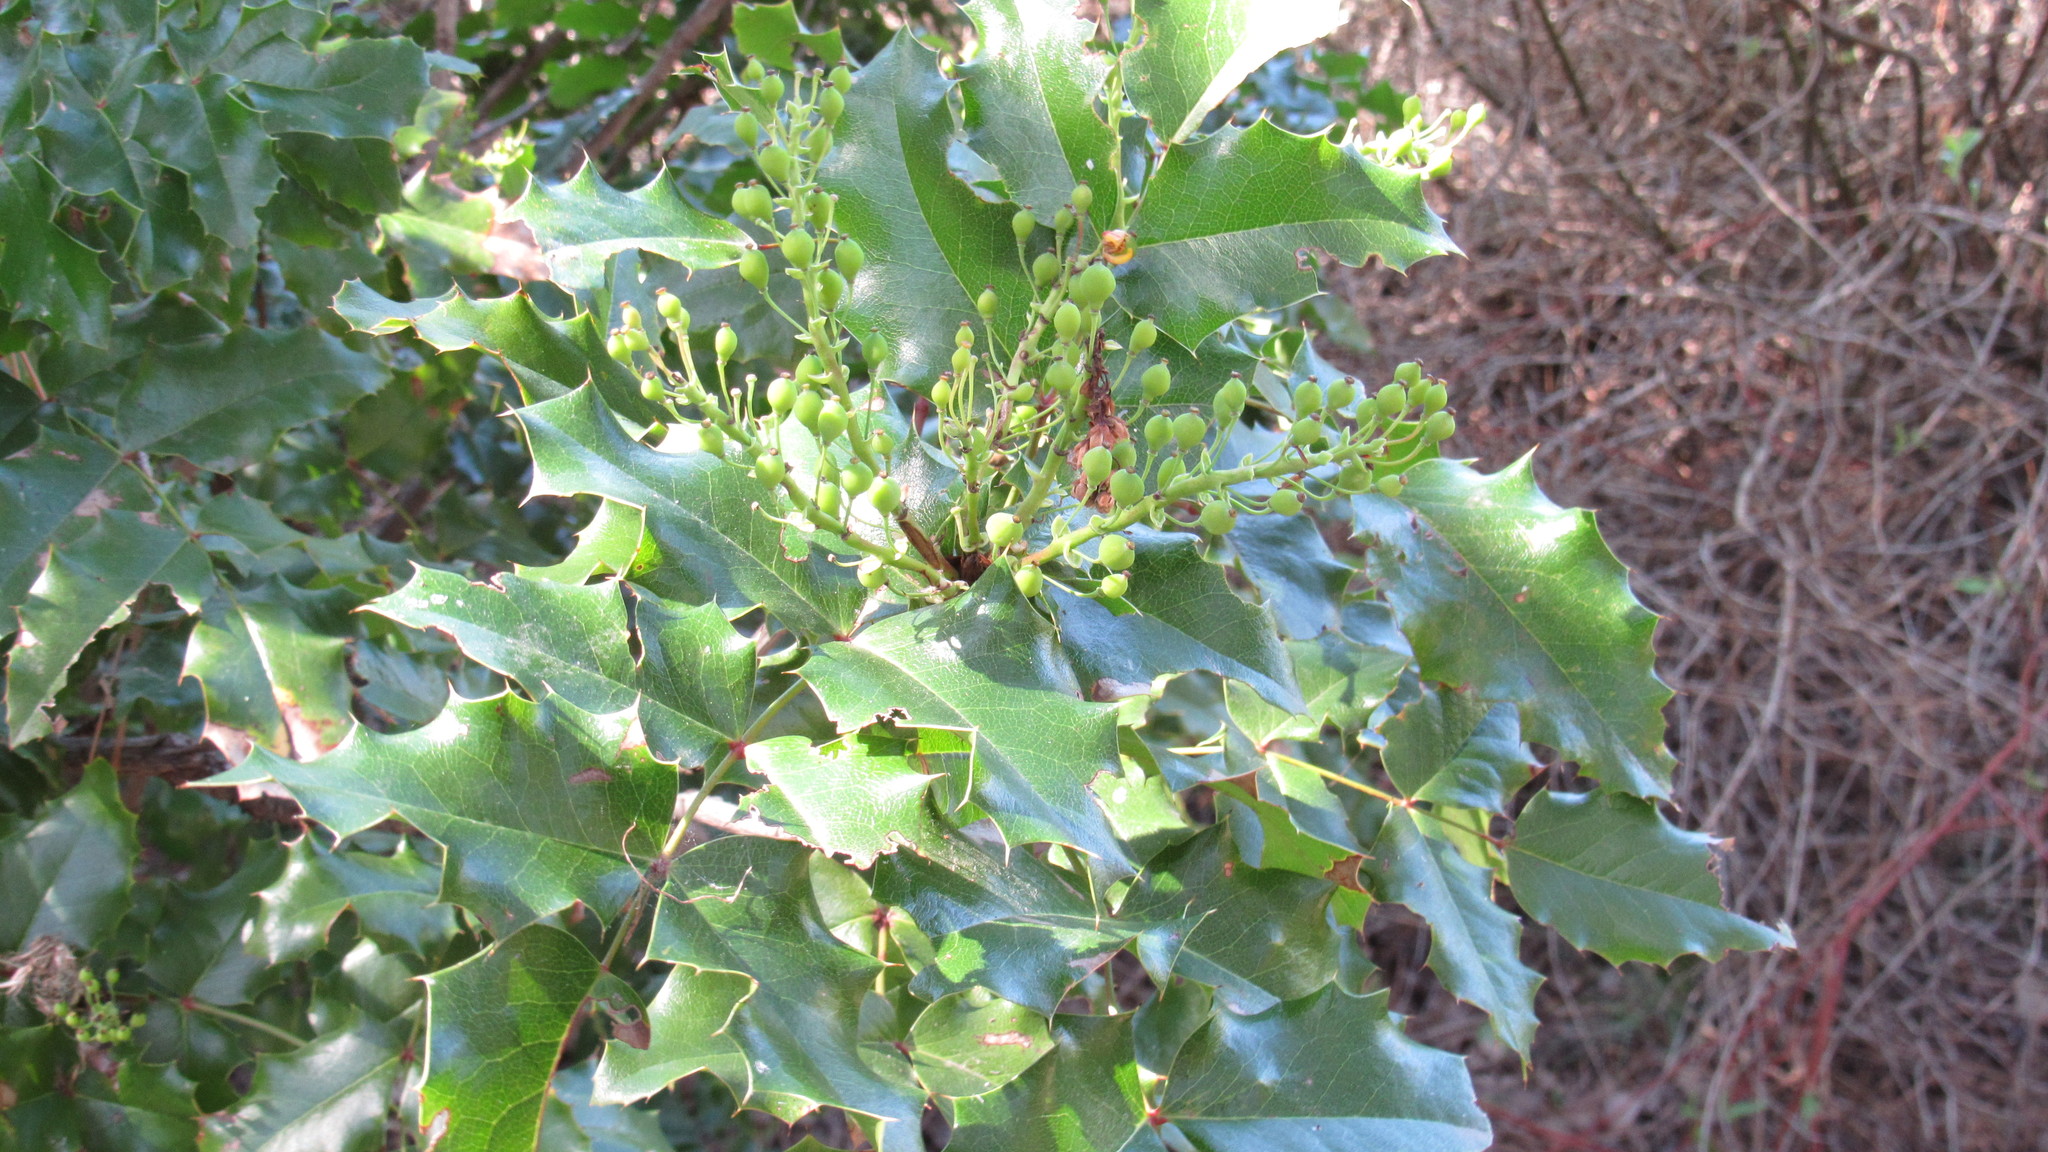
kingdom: Plantae
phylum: Tracheophyta
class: Magnoliopsida
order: Ranunculales
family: Berberidaceae
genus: Mahonia
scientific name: Mahonia aquifolium
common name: Oregon-grape
